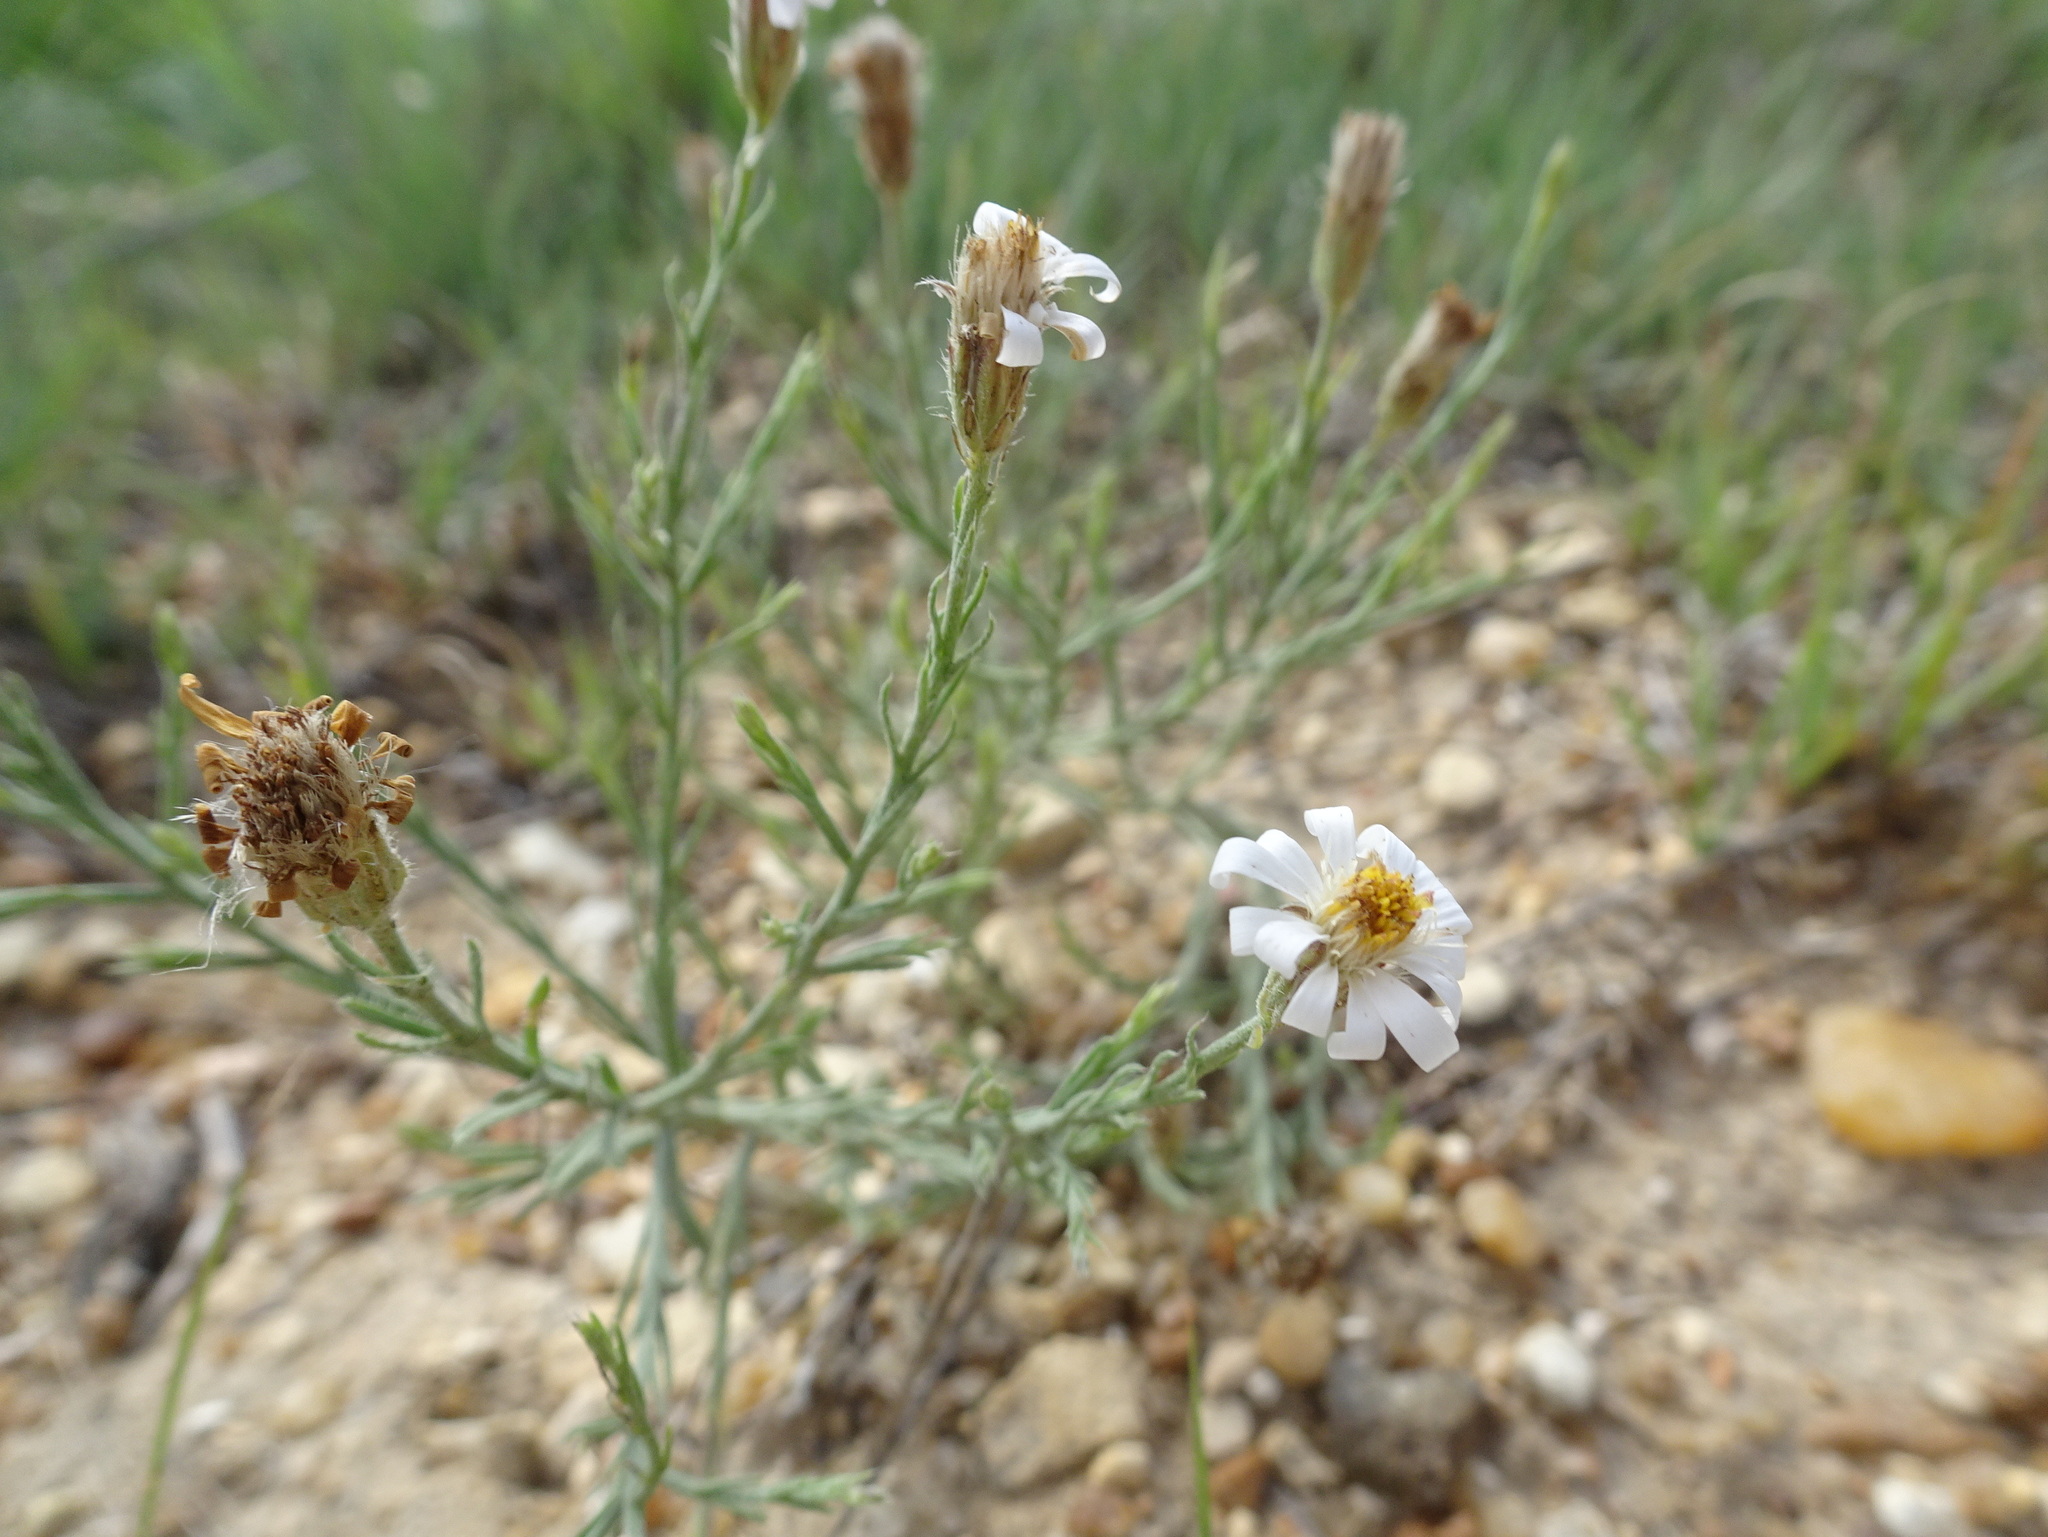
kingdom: Plantae
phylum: Tracheophyta
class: Magnoliopsida
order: Asterales
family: Asteraceae
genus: Chaetopappa
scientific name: Chaetopappa ericoides
